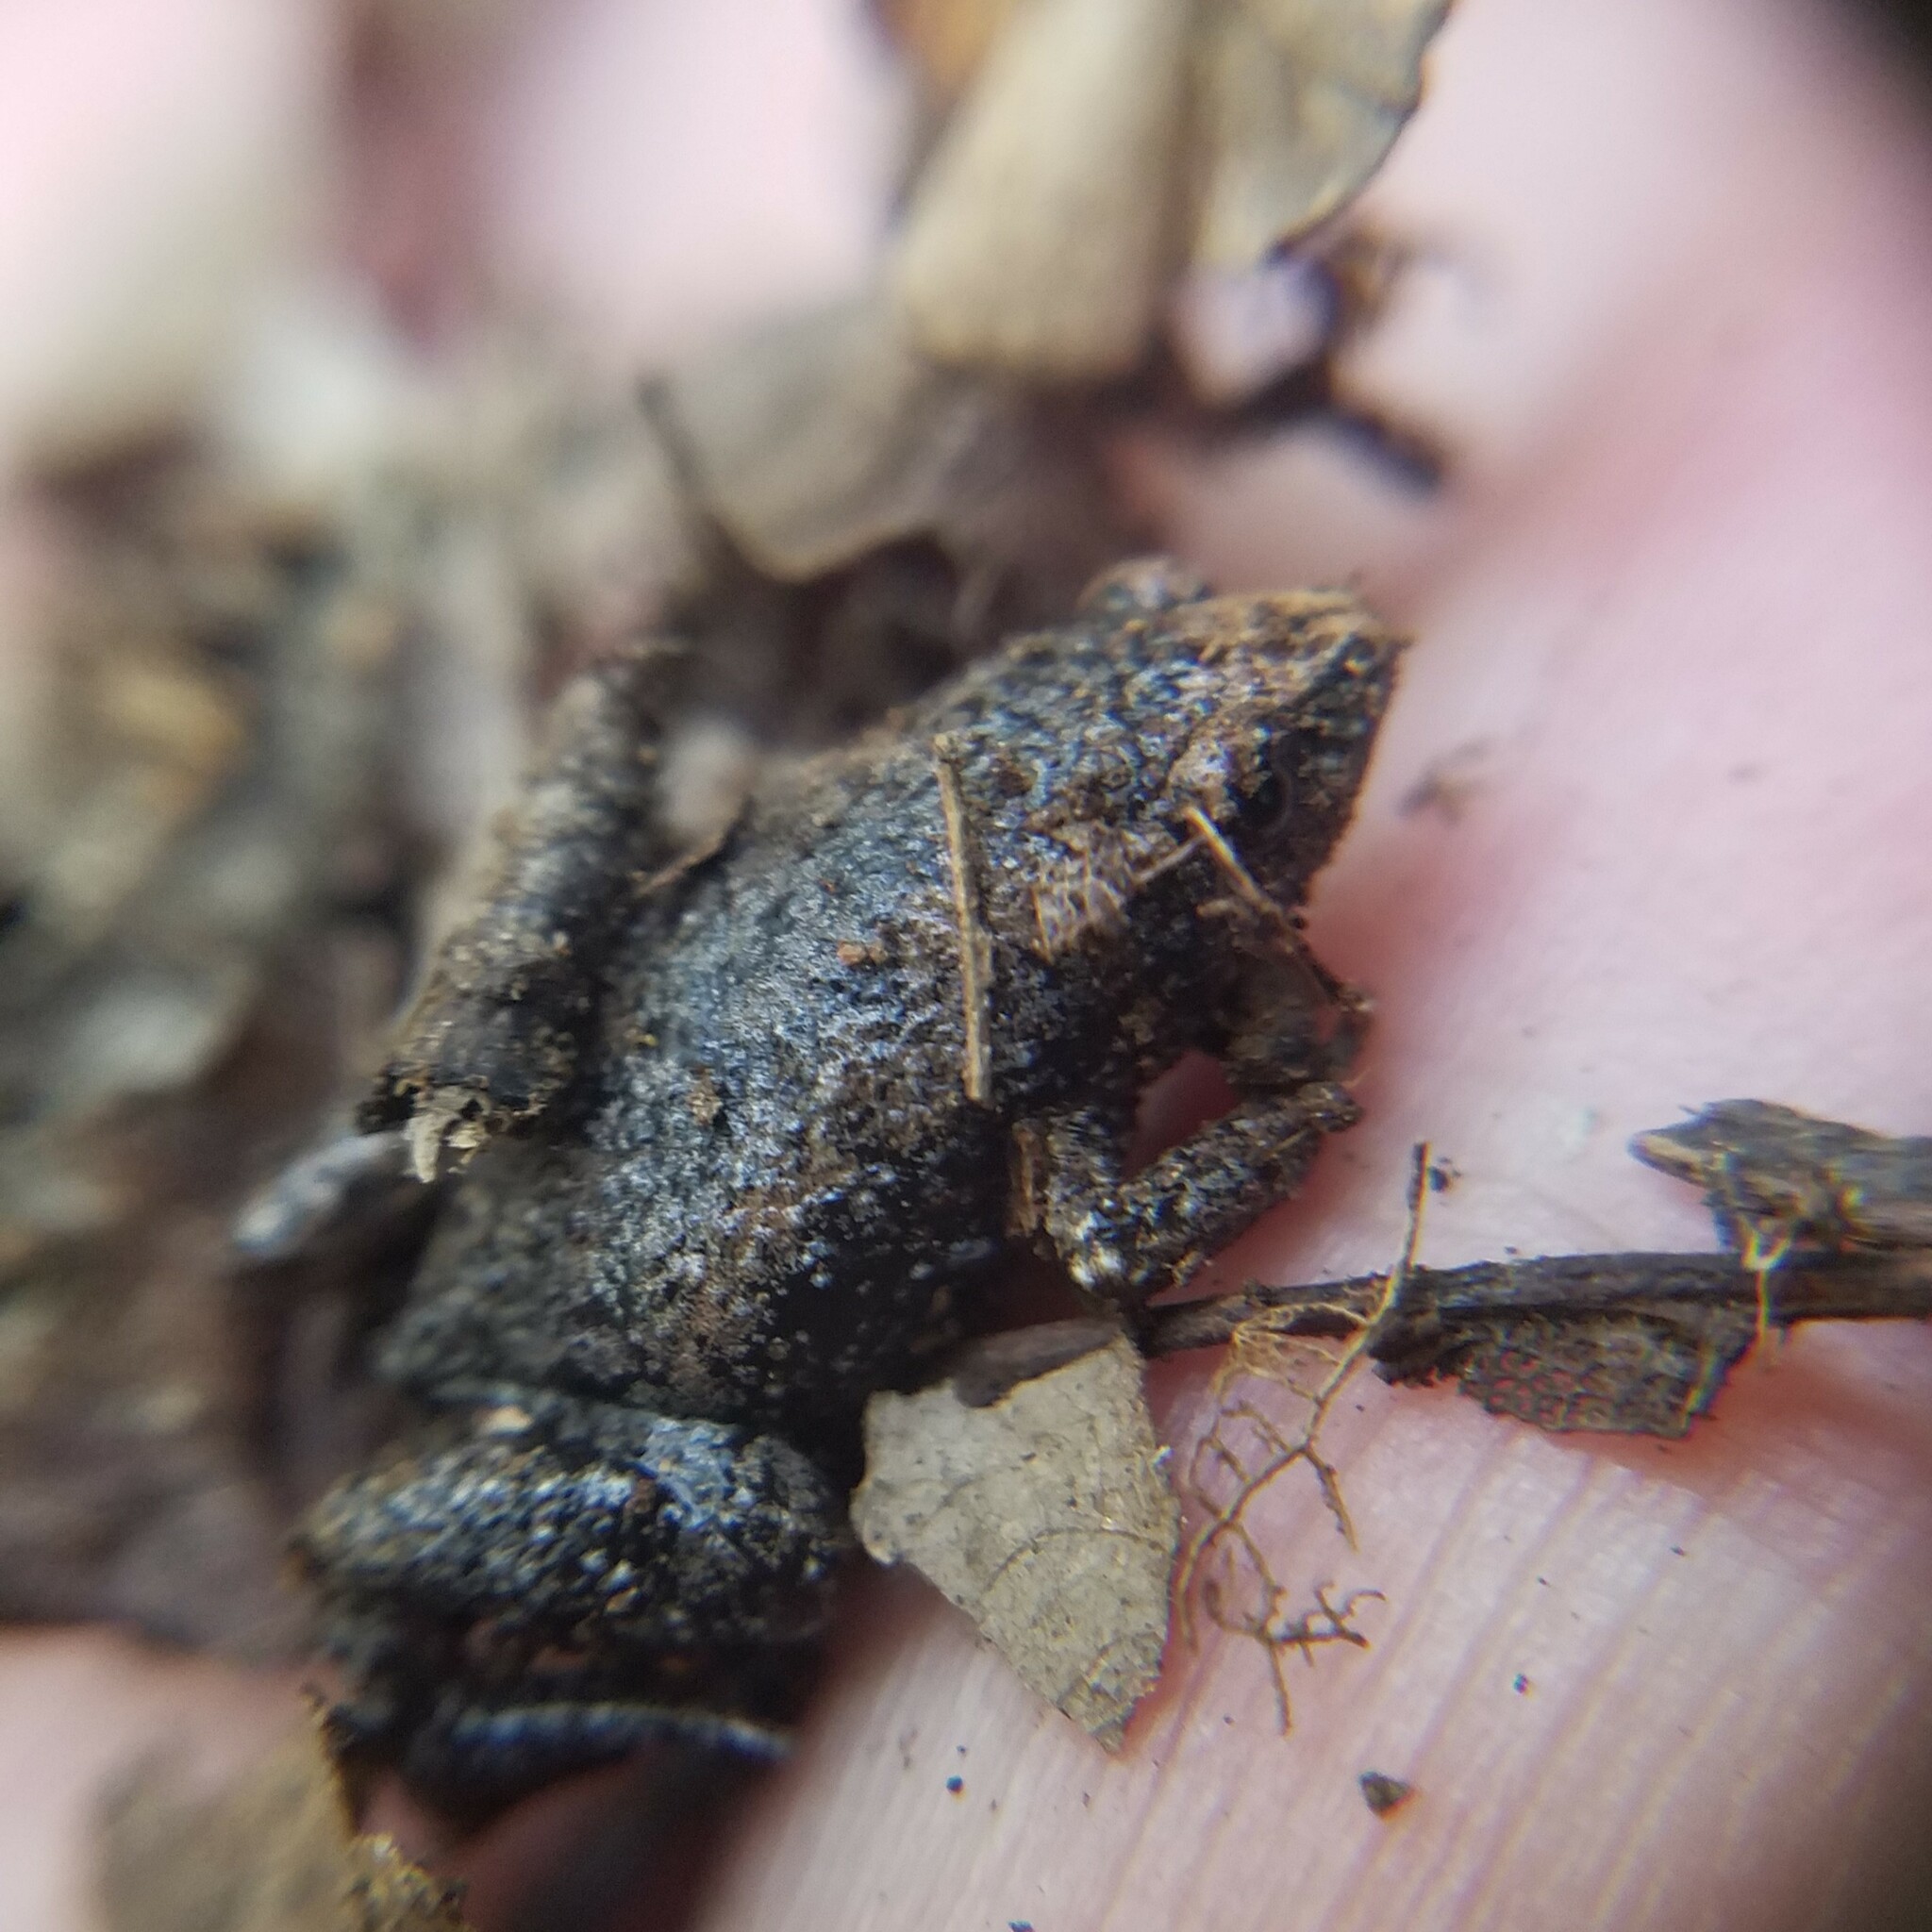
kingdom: Animalia
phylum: Chordata
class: Amphibia
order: Anura
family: Microhylidae
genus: Gastrophryne
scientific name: Gastrophryne carolinensis
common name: Eastern narrowmouth toad
